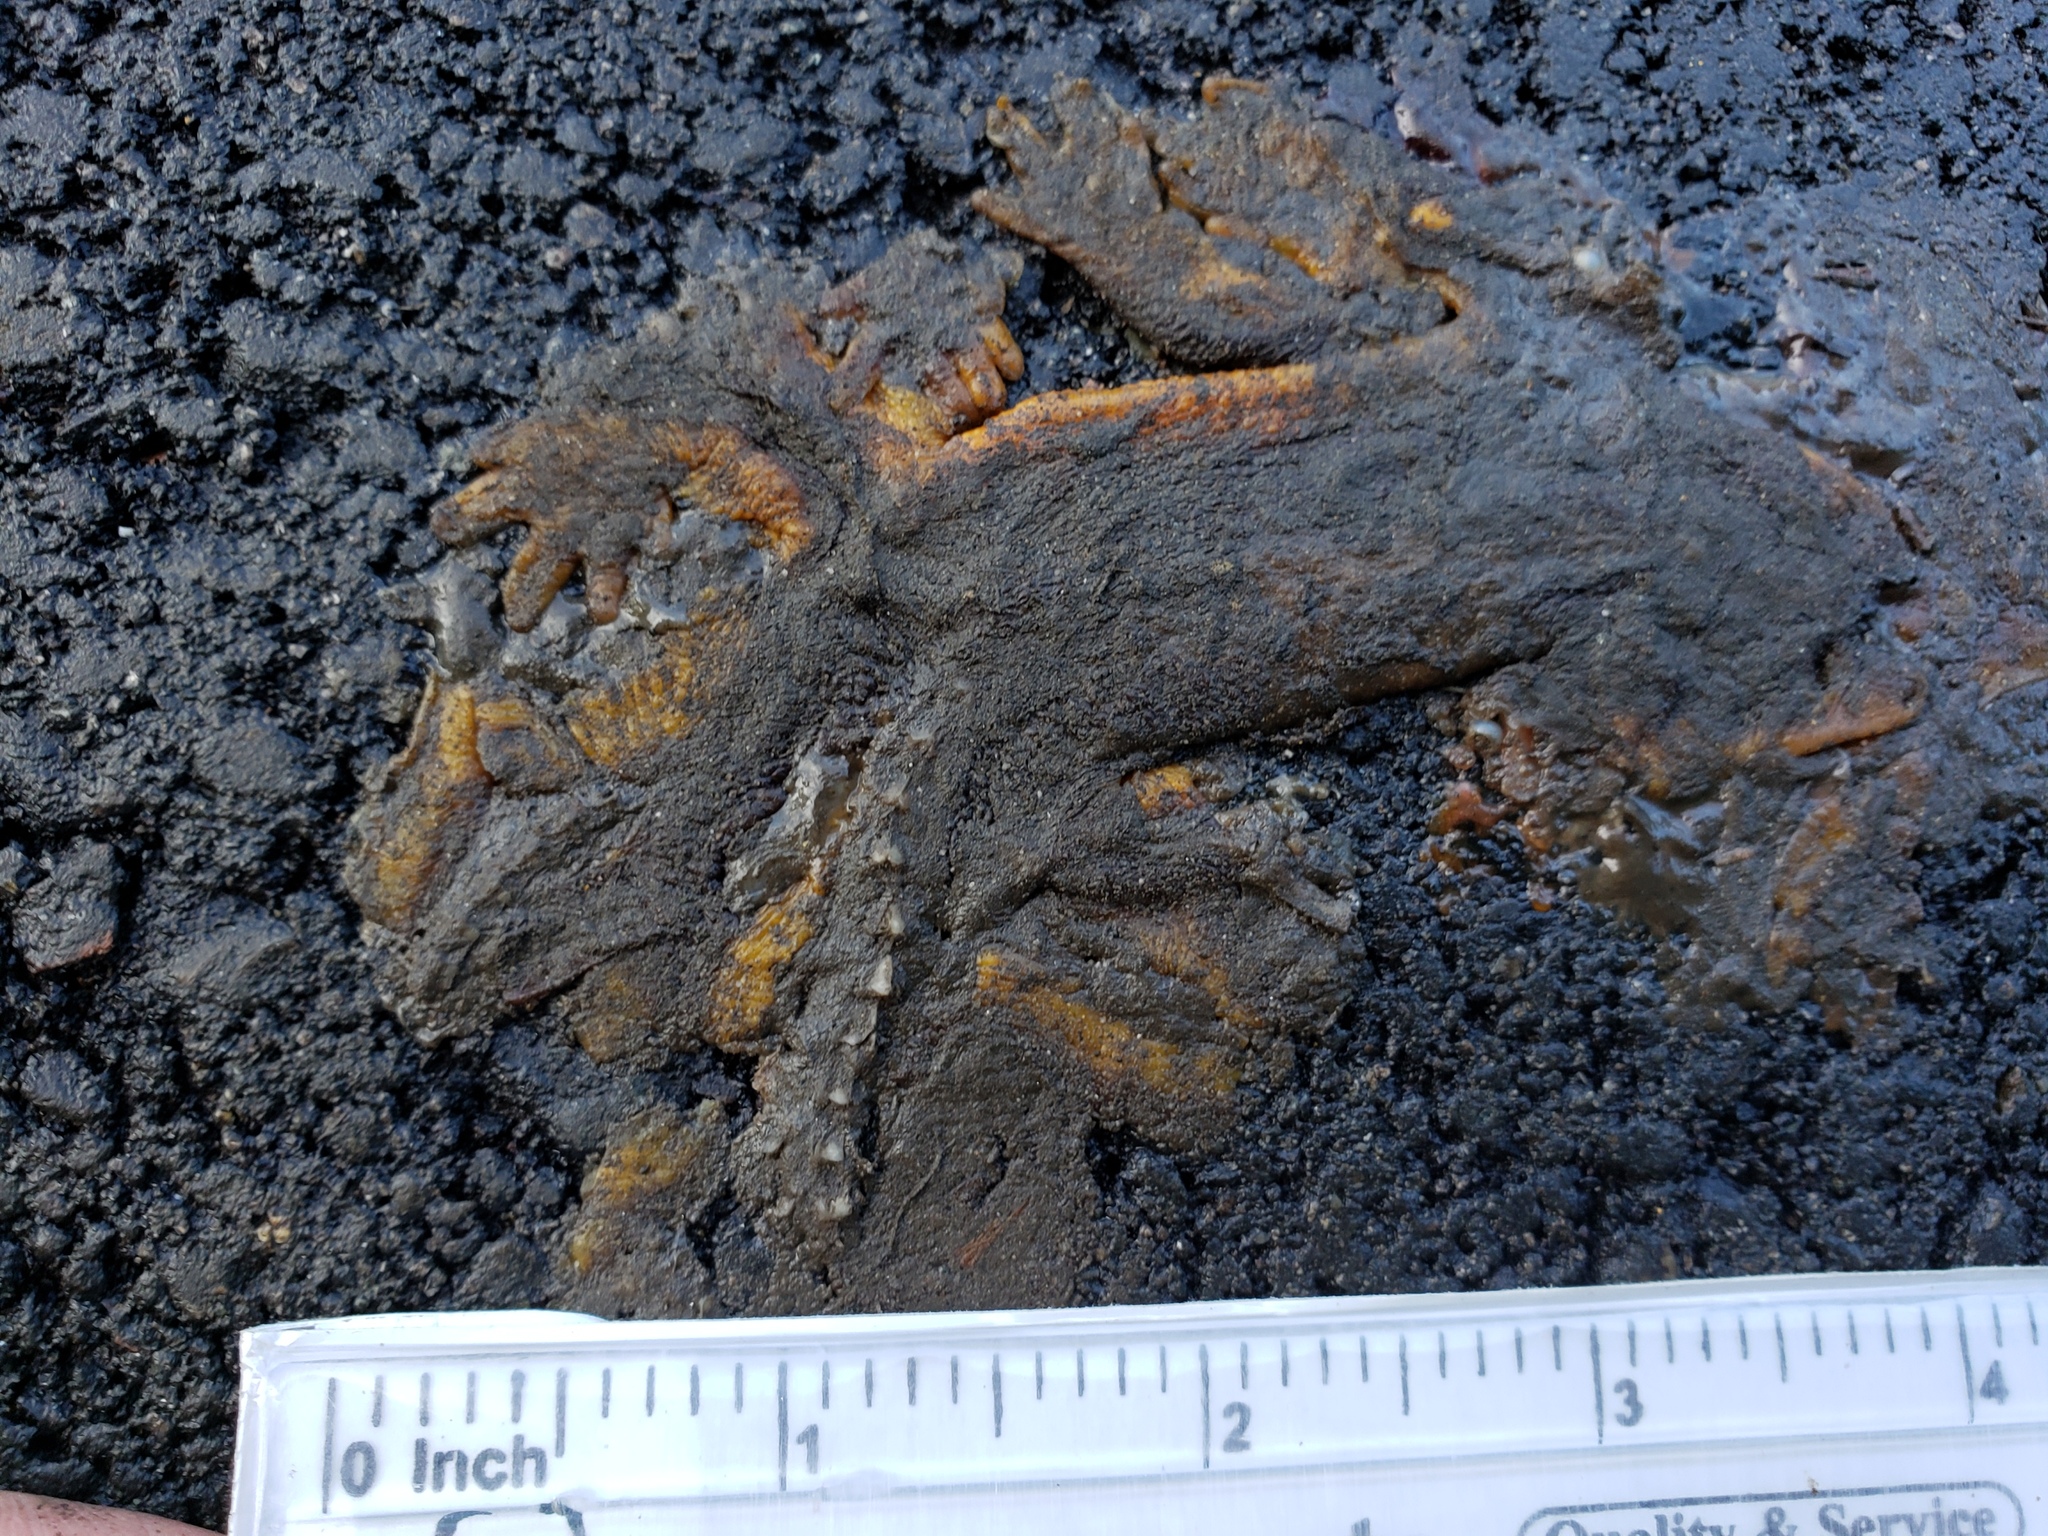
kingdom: Animalia
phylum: Chordata
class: Amphibia
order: Caudata
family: Salamandridae
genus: Taricha
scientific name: Taricha
